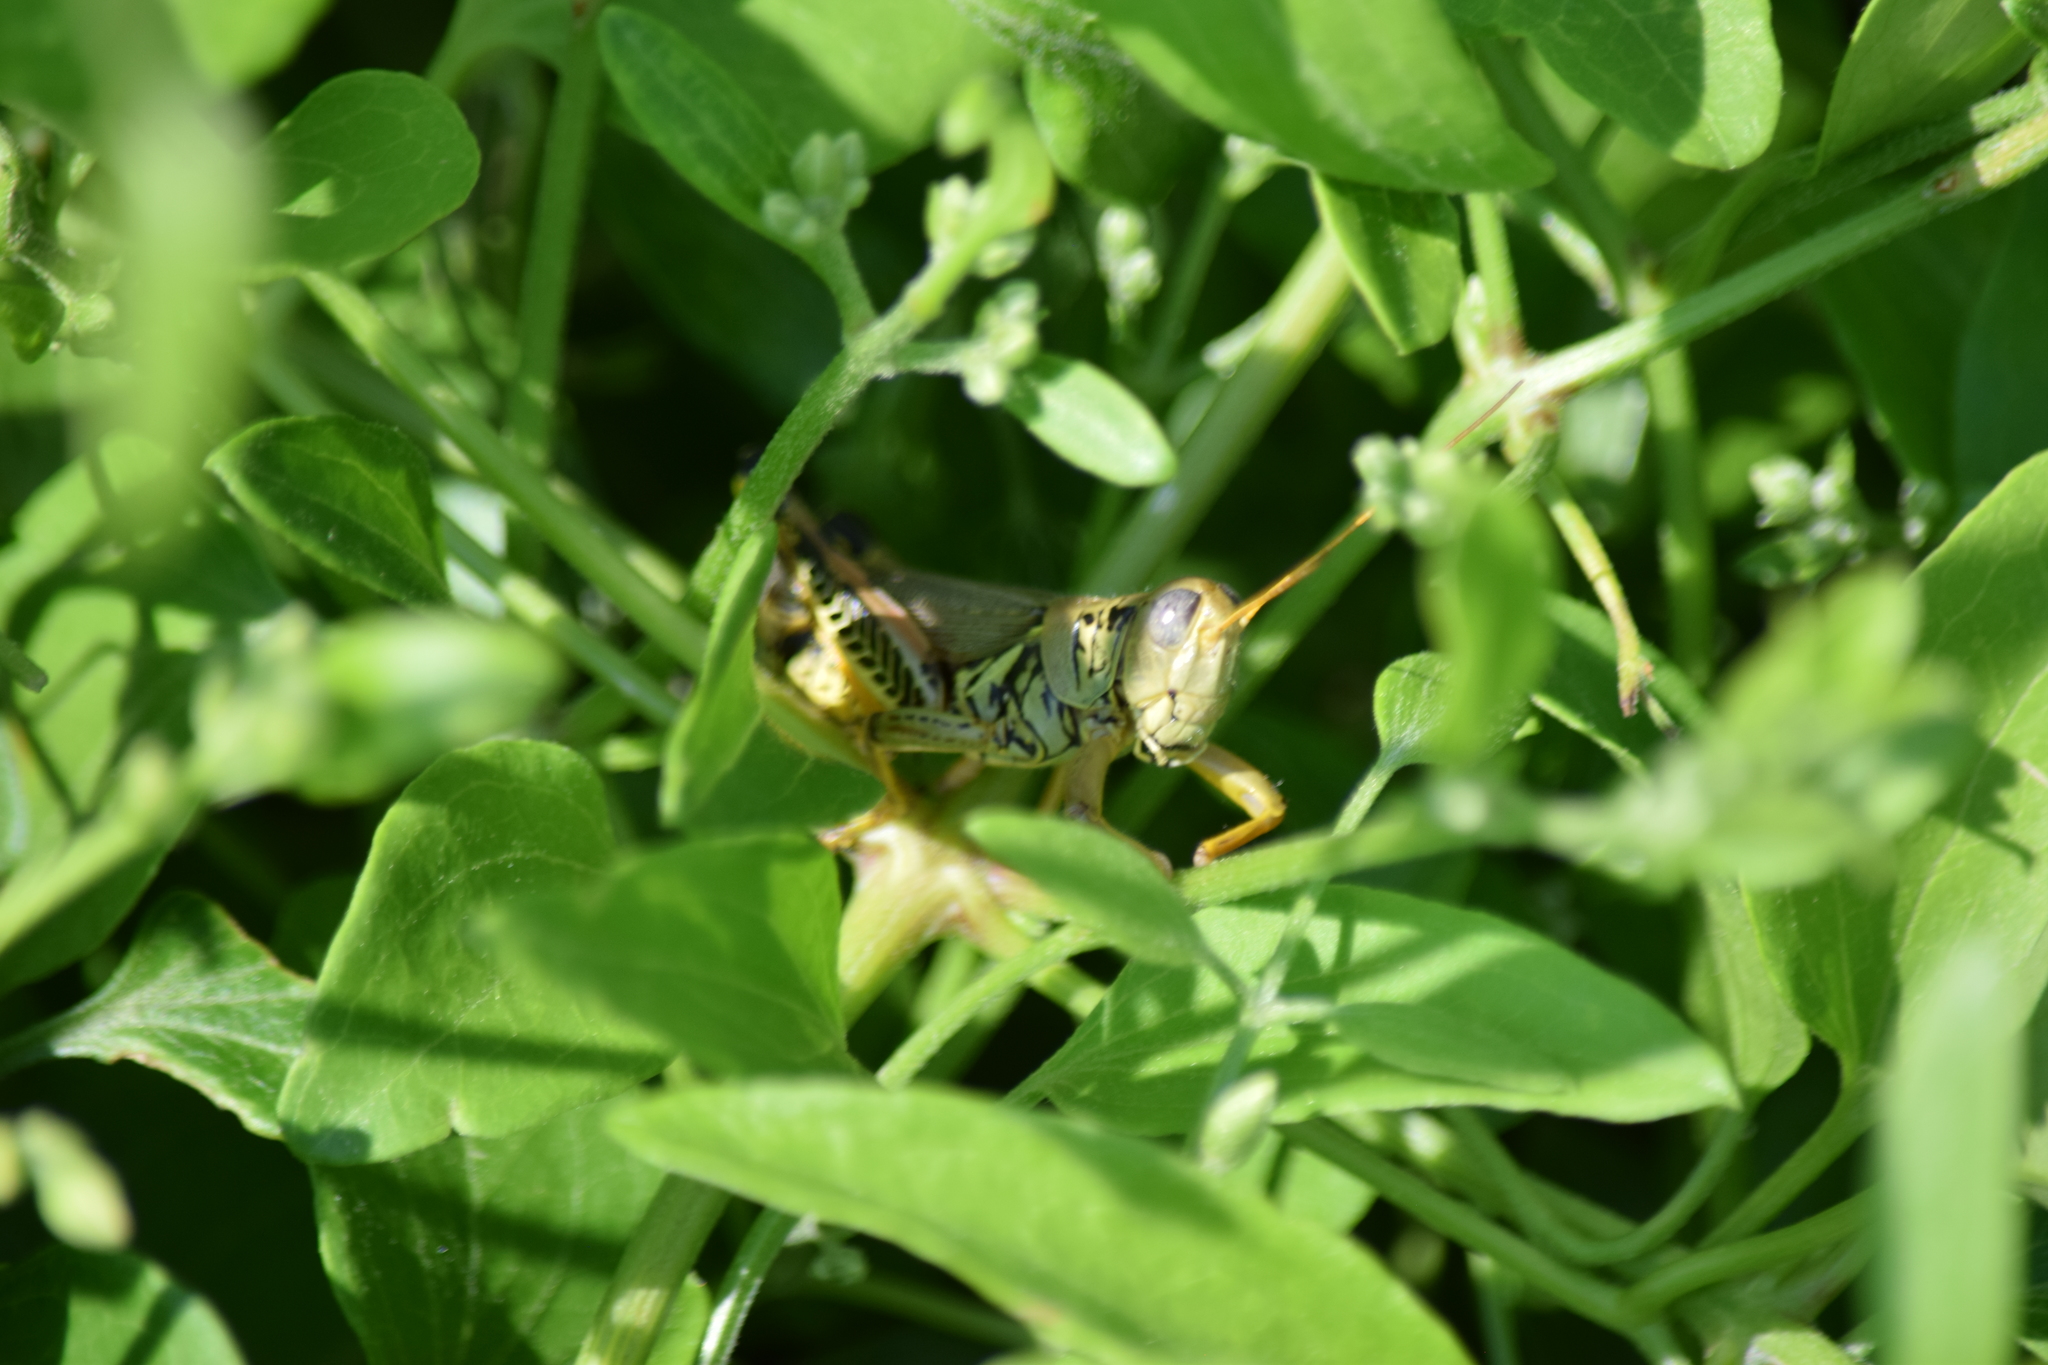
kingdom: Animalia
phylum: Arthropoda
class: Insecta
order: Orthoptera
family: Acrididae
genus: Melanoplus
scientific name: Melanoplus differentialis
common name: Differential grasshopper
